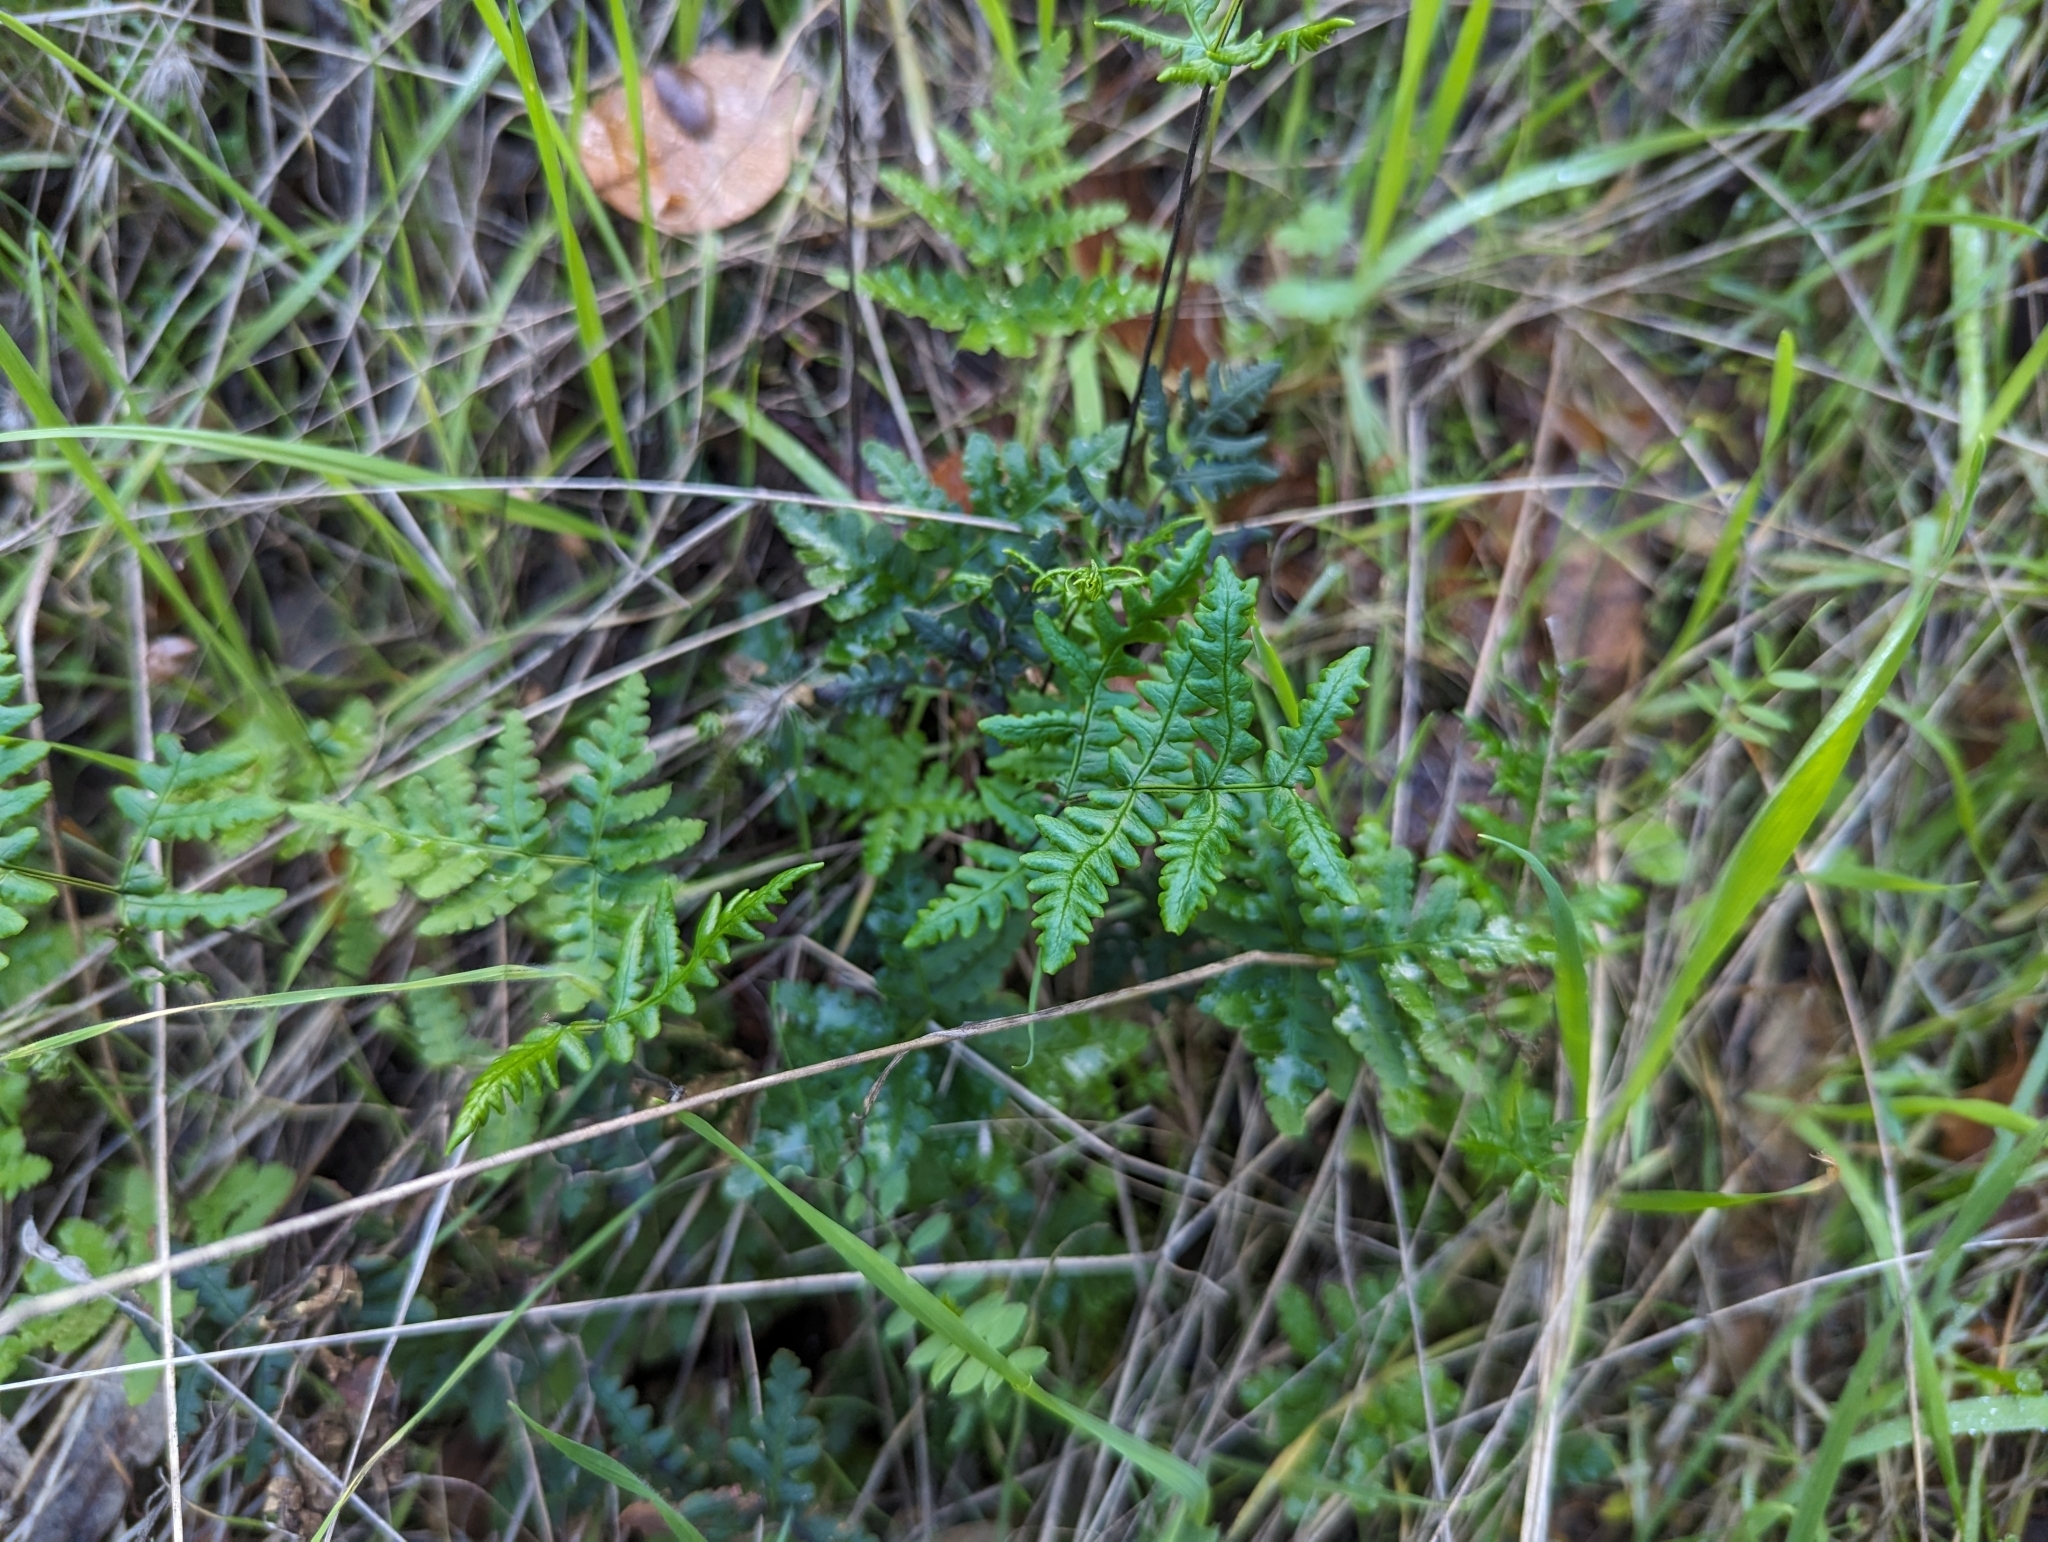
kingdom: Plantae
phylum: Tracheophyta
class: Polypodiopsida
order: Polypodiales
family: Pteridaceae
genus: Pentagramma
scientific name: Pentagramma triangularis
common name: Gold fern
